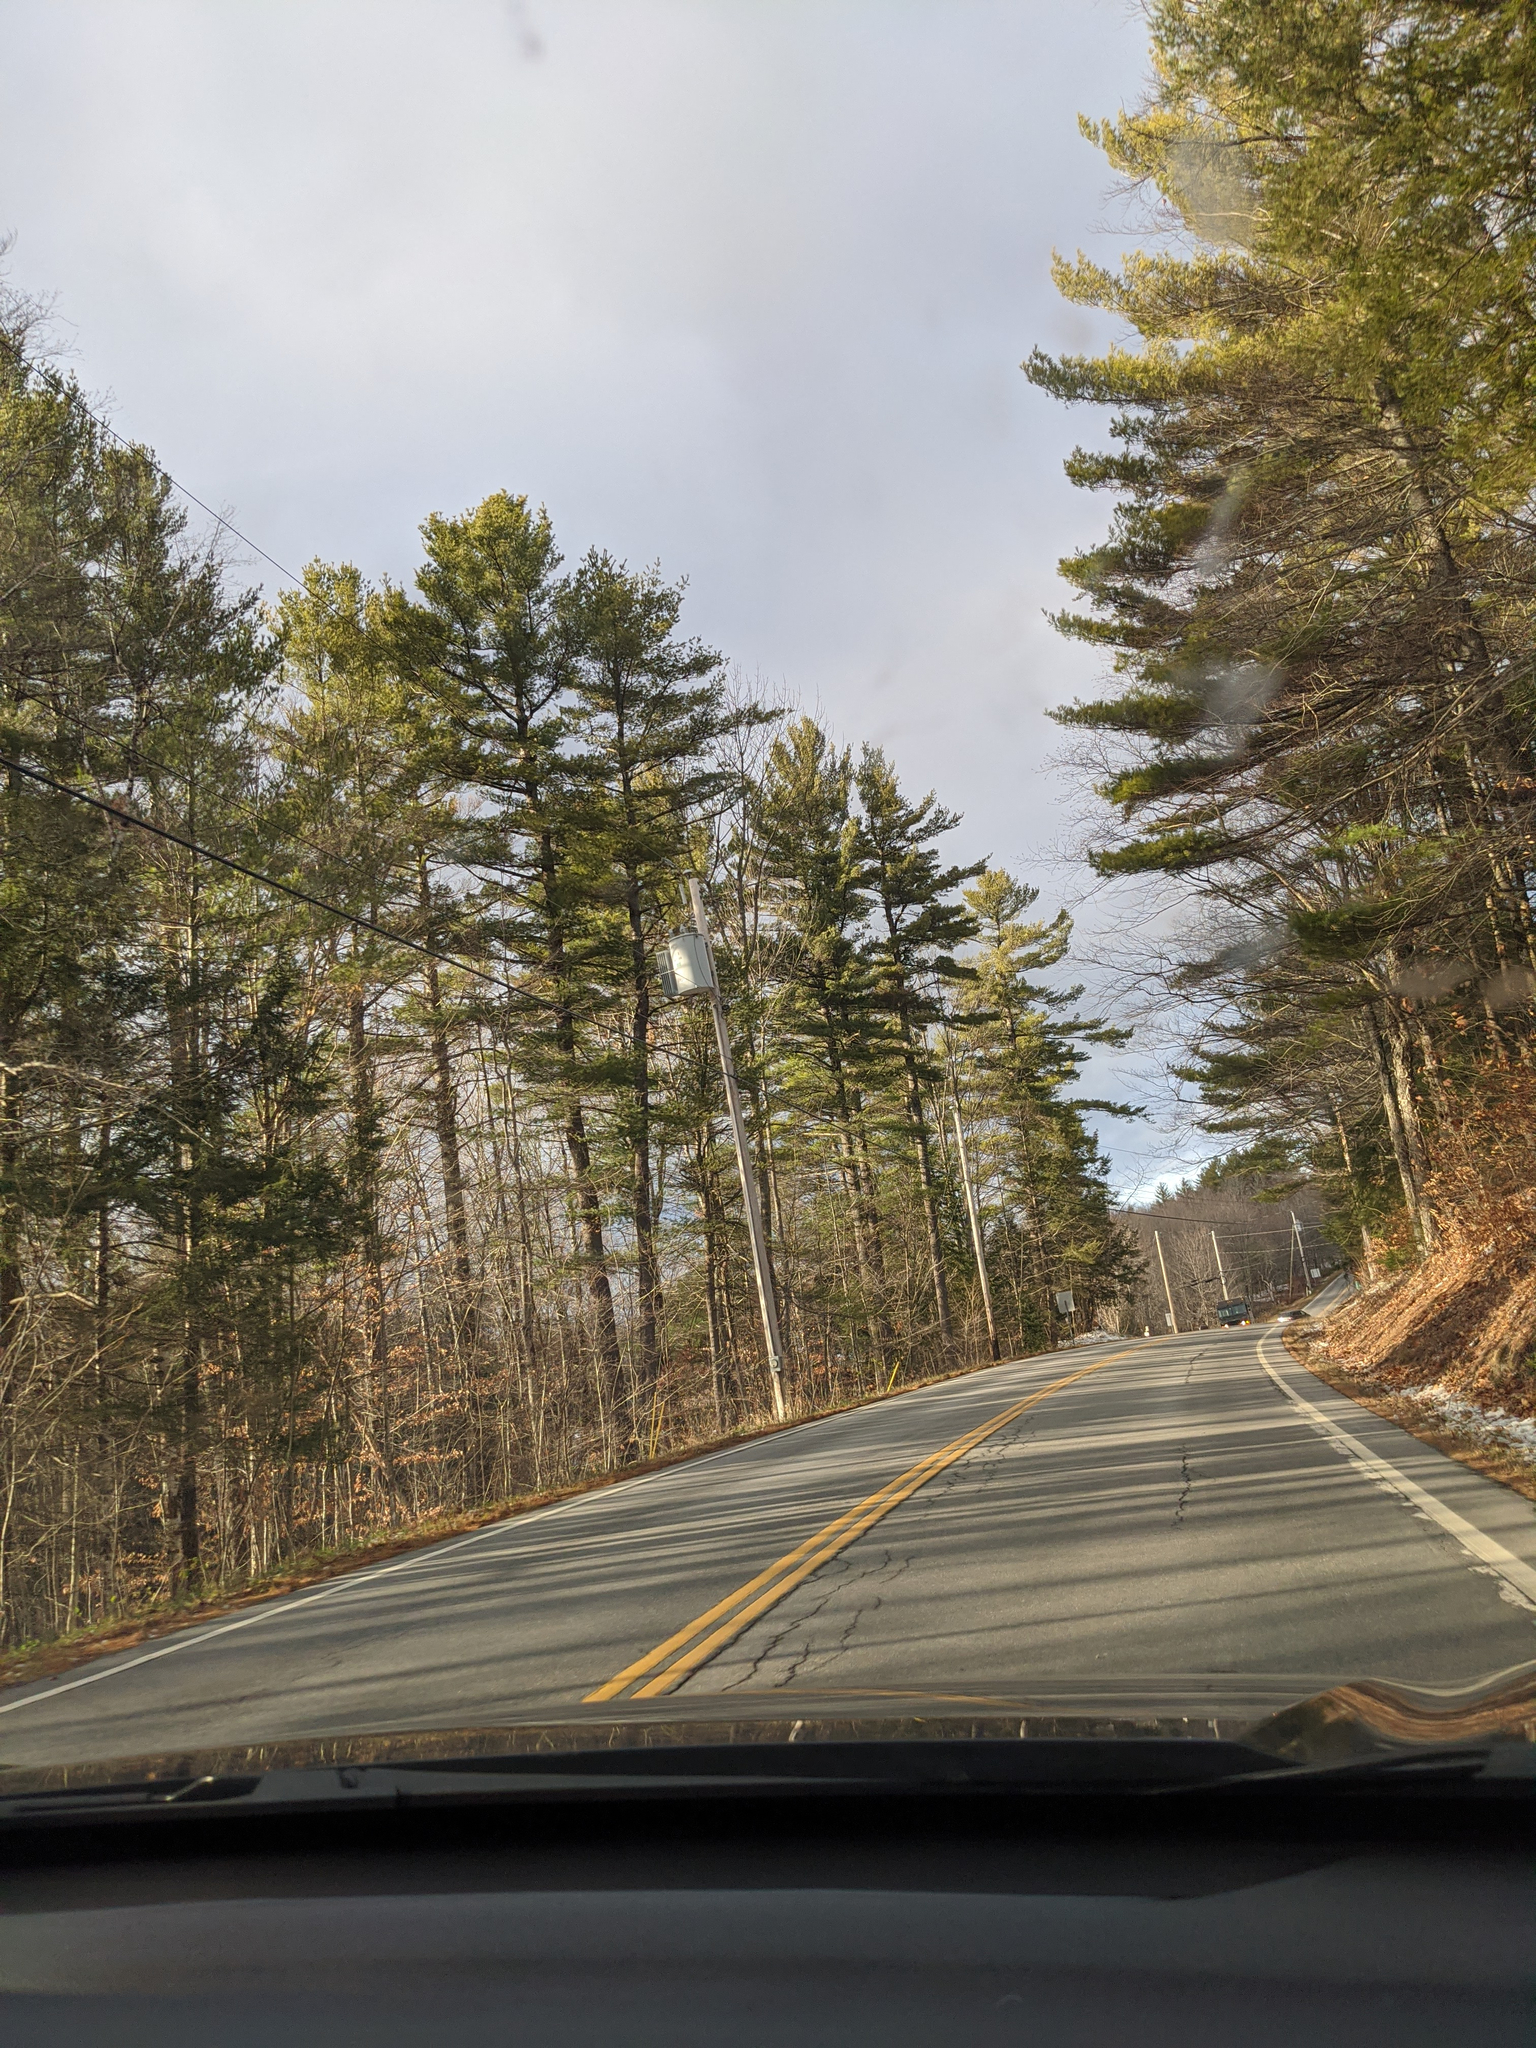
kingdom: Plantae
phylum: Tracheophyta
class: Pinopsida
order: Pinales
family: Pinaceae
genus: Pinus
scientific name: Pinus strobus
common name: Weymouth pine
